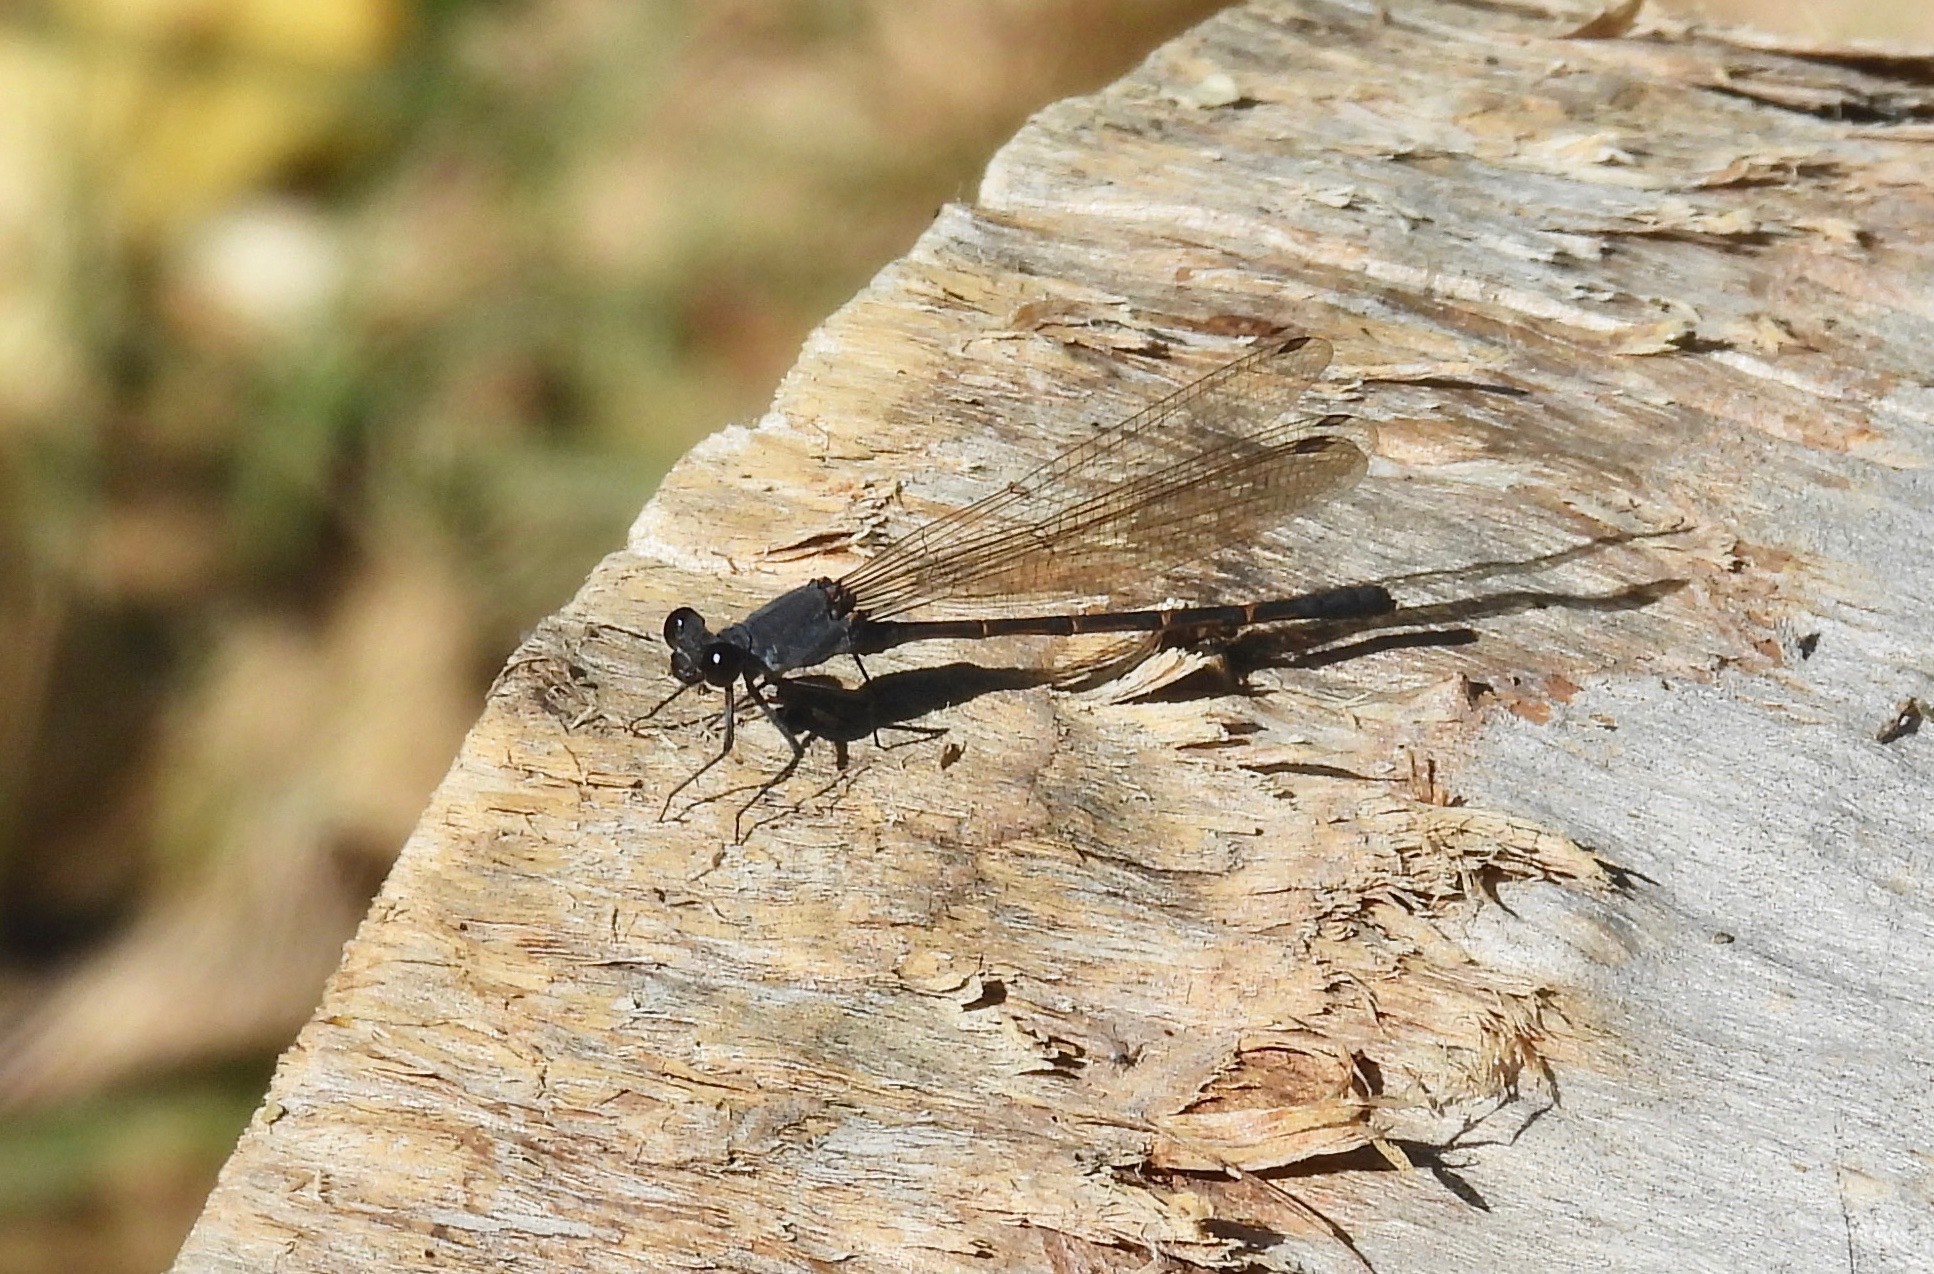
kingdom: Animalia
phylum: Arthropoda
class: Insecta
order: Odonata
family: Coenagrionidae
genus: Argia
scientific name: Argia lugens
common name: Sooty dancer
